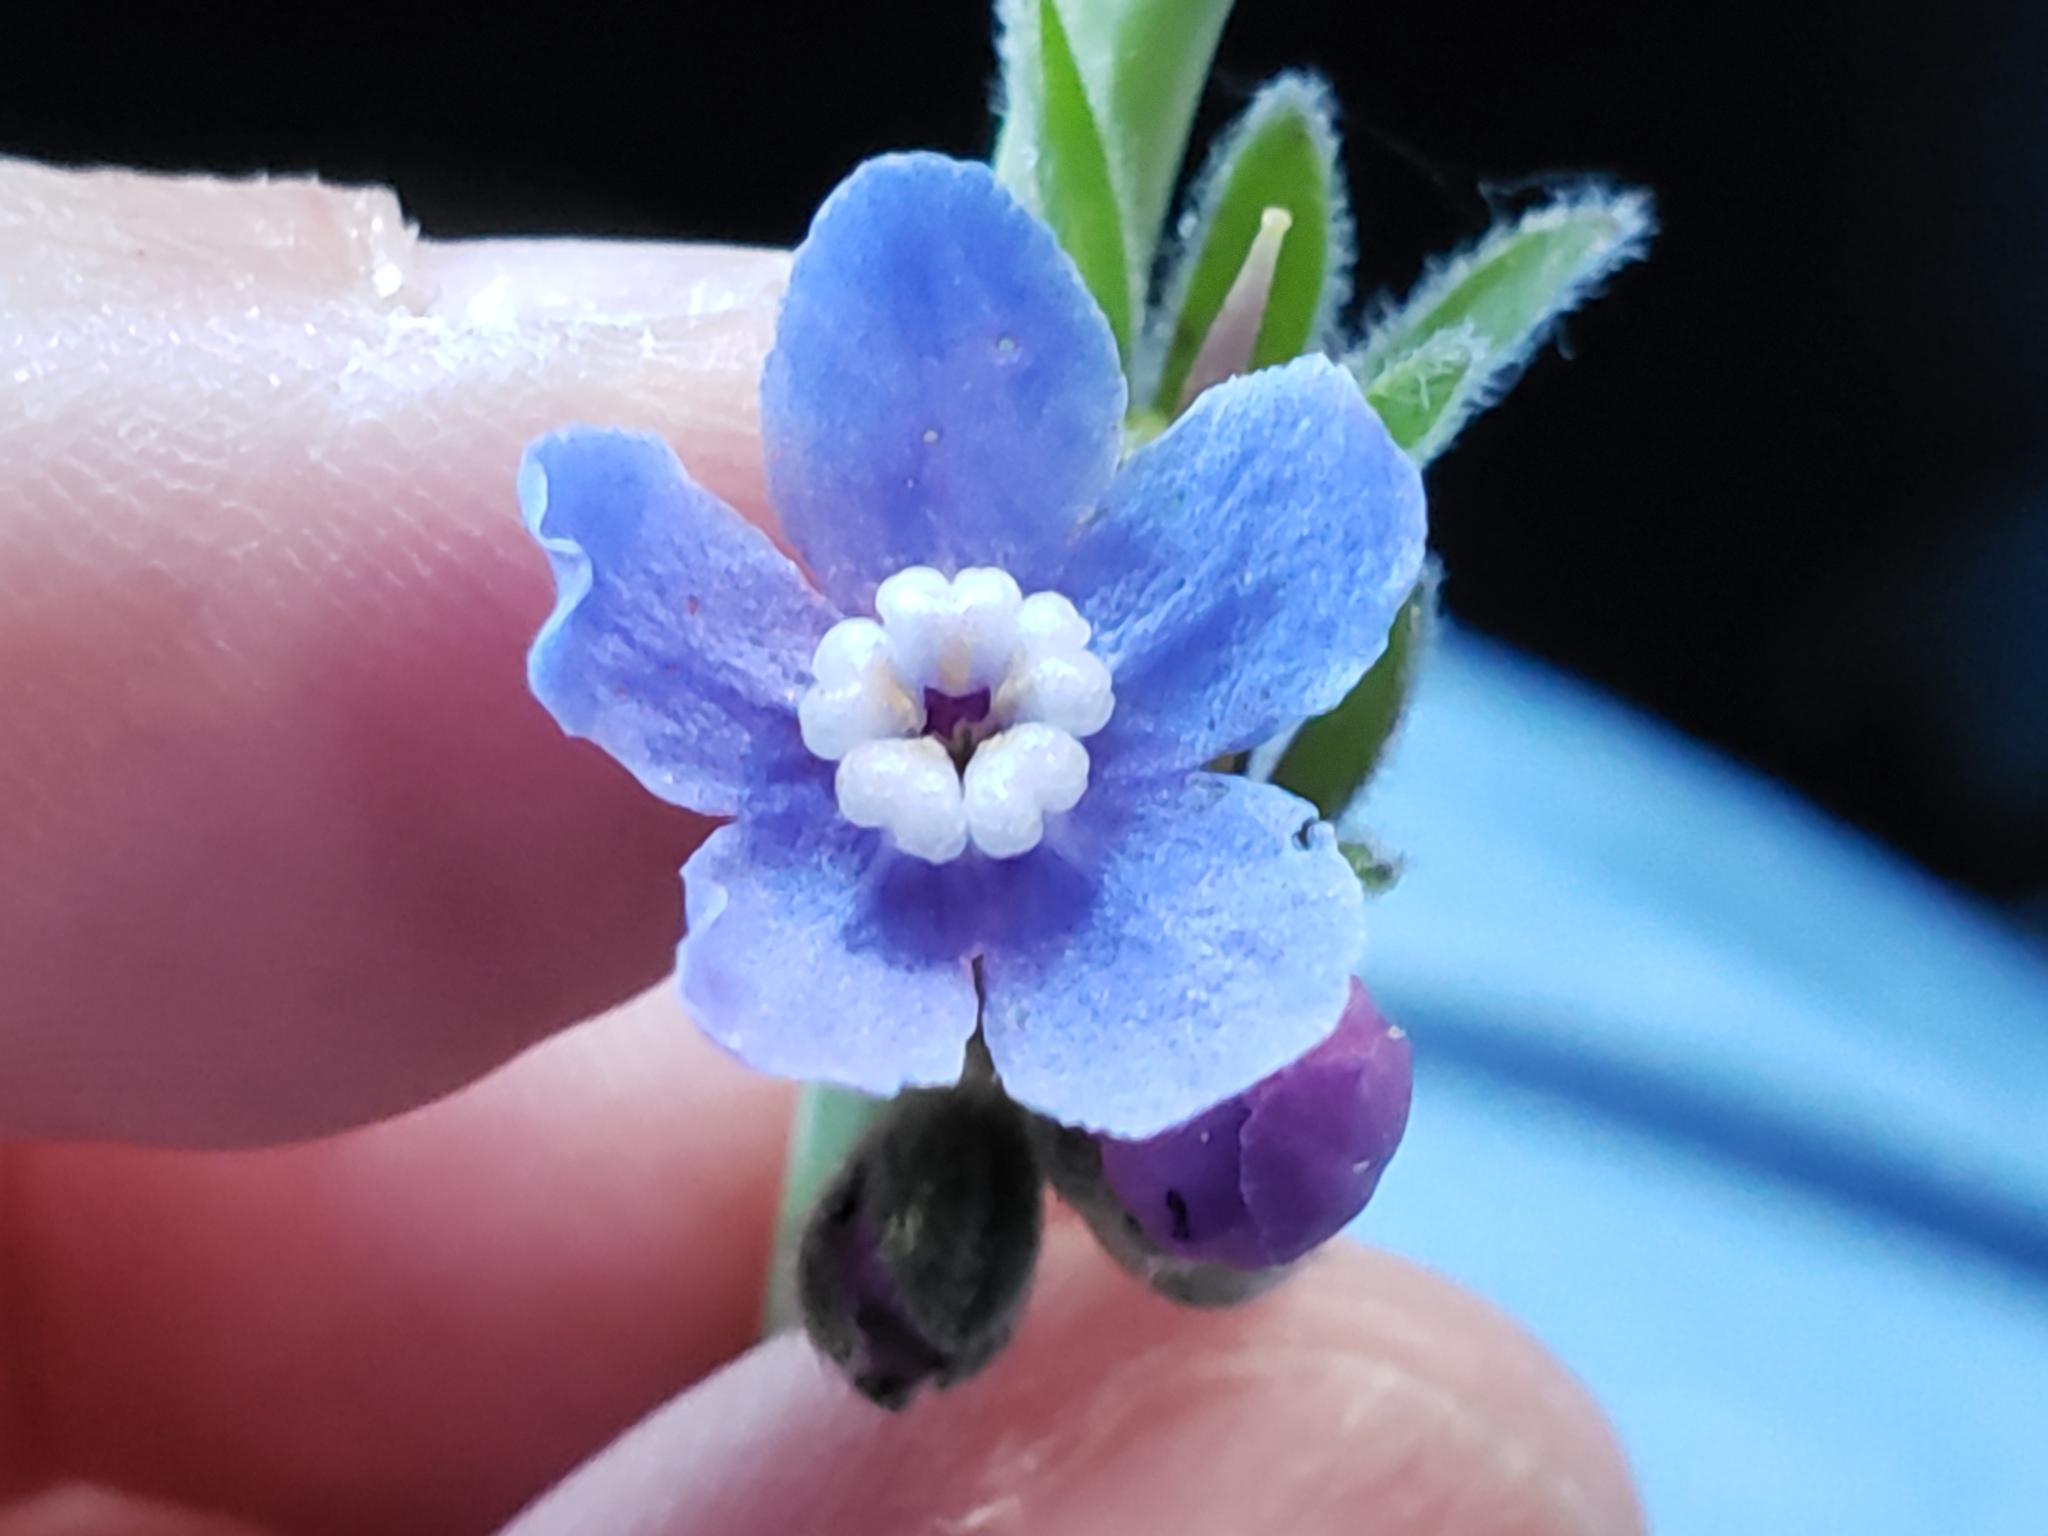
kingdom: Plantae
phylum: Tracheophyta
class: Magnoliopsida
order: Boraginales
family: Boraginaceae
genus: Adelinia
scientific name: Adelinia grande
